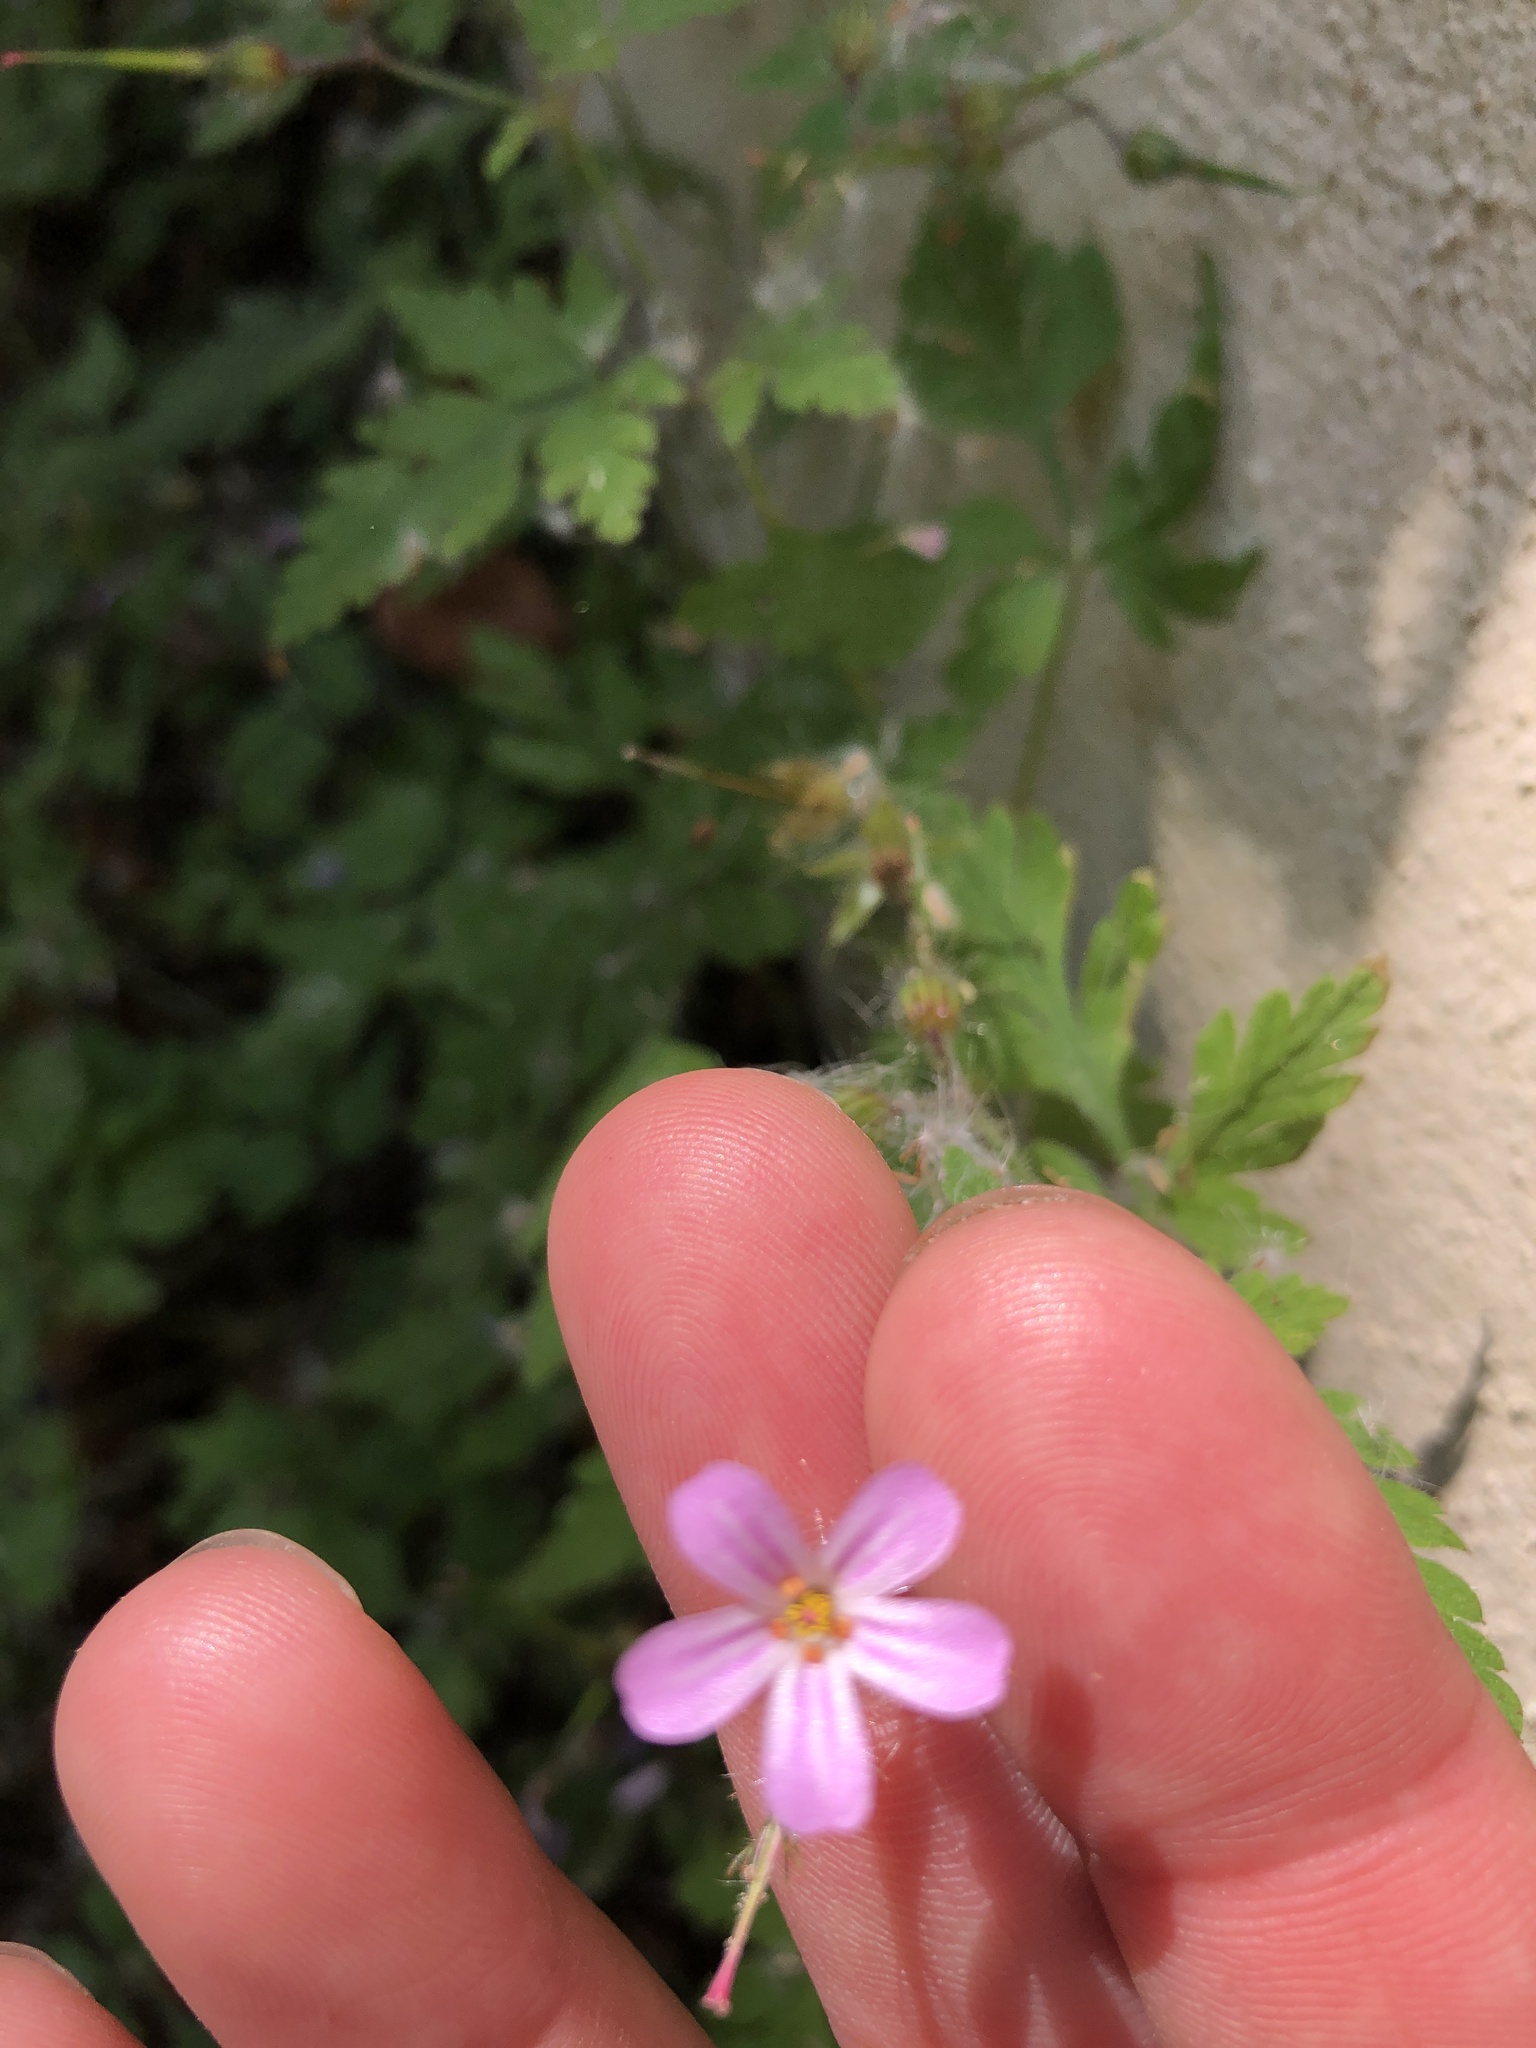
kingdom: Plantae
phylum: Tracheophyta
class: Magnoliopsida
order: Geraniales
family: Geraniaceae
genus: Geranium
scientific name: Geranium robertianum
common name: Herb-robert
